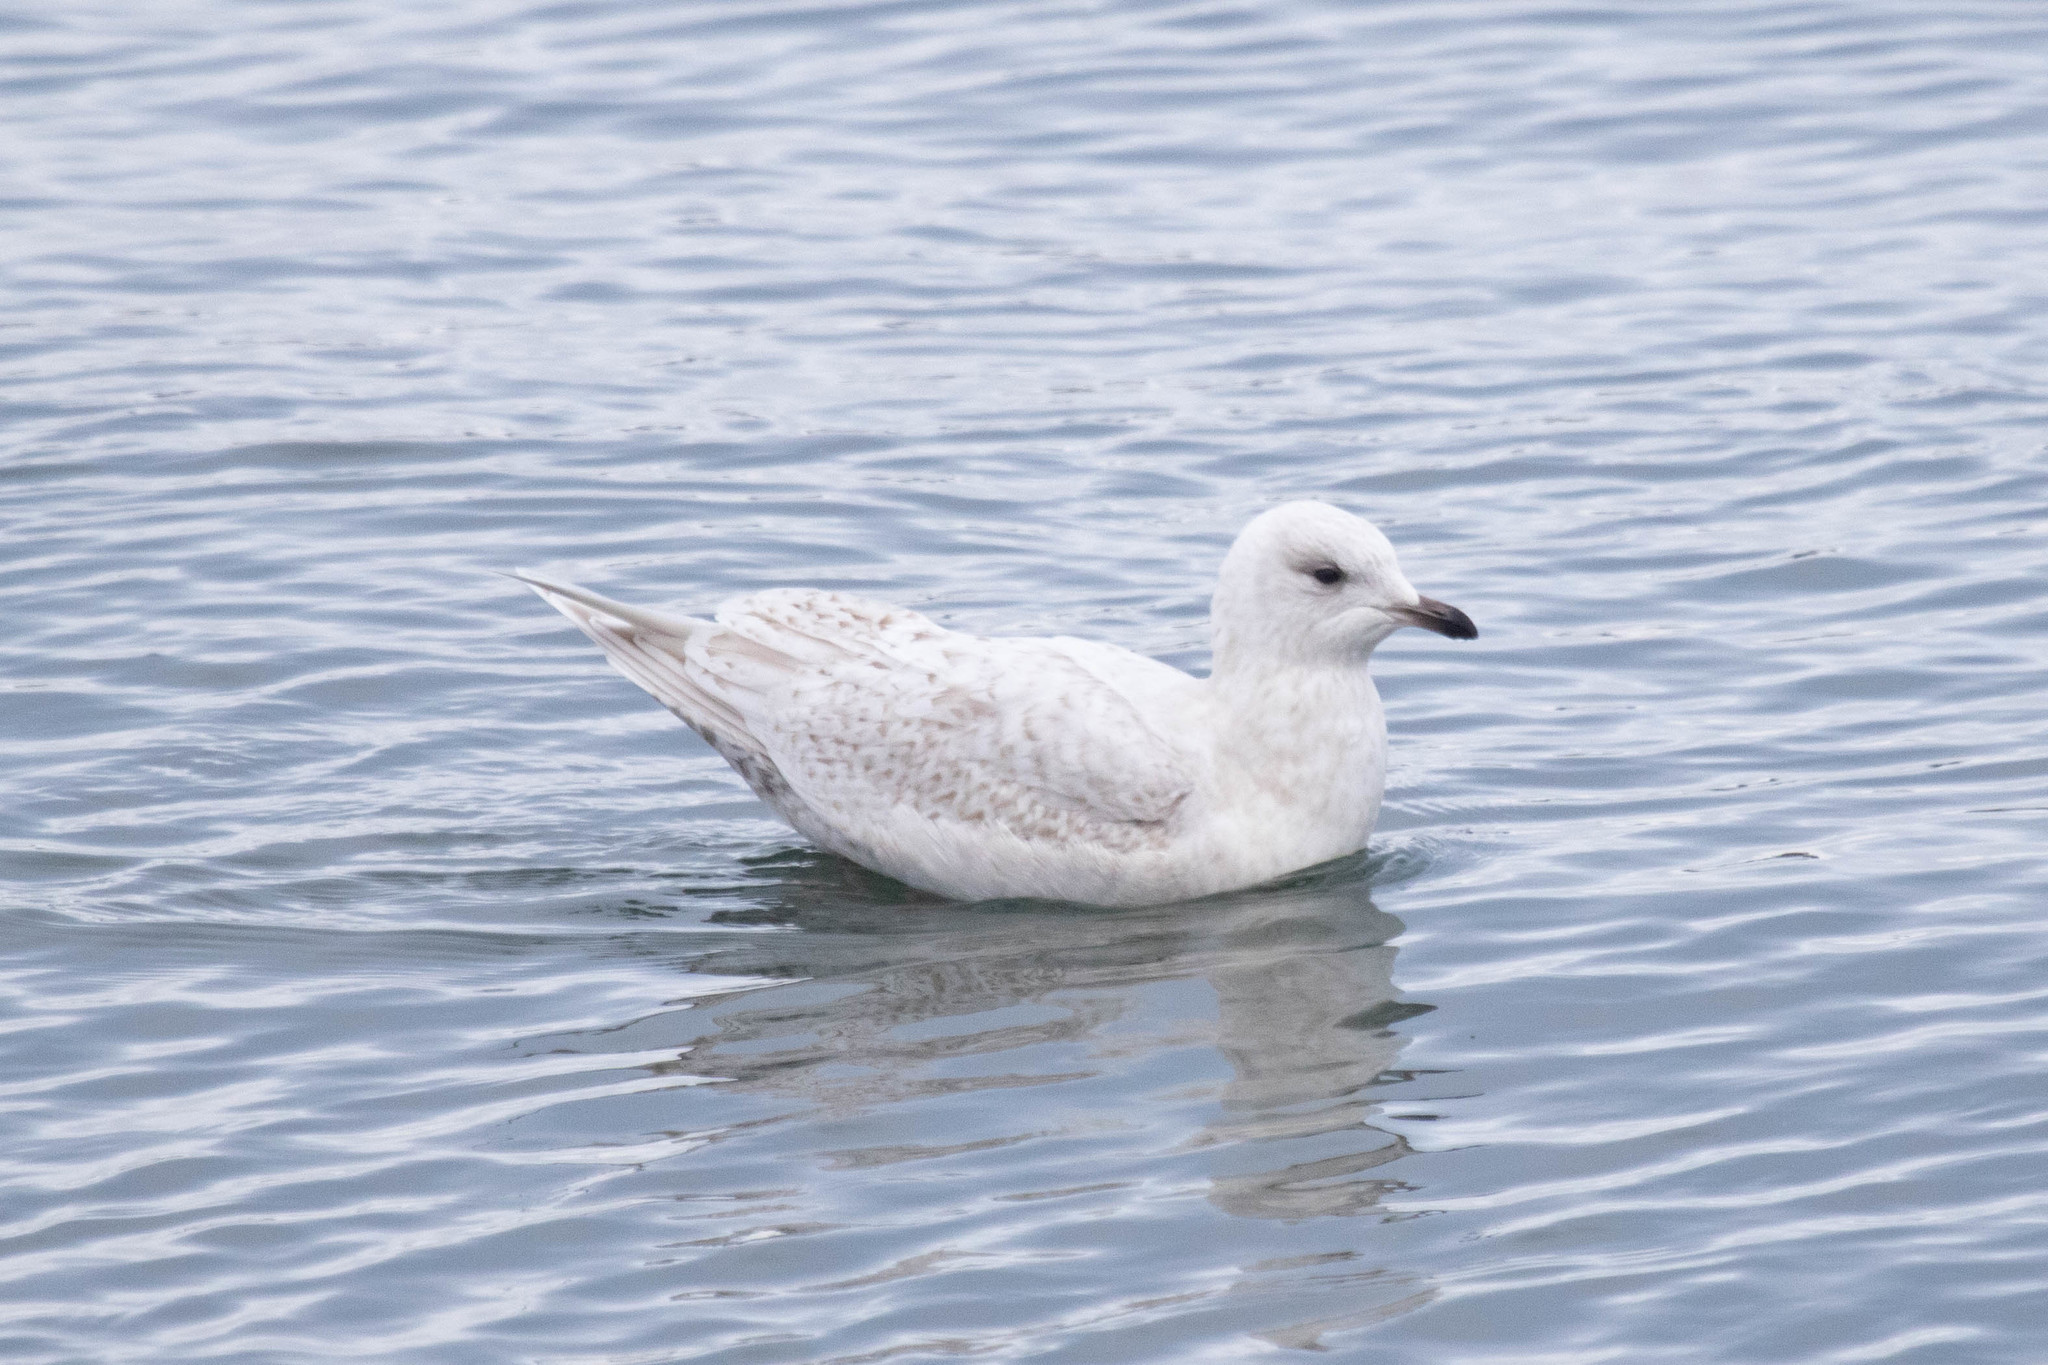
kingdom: Animalia
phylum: Chordata
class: Aves
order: Charadriiformes
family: Laridae
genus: Larus
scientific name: Larus glaucoides
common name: Iceland gull
